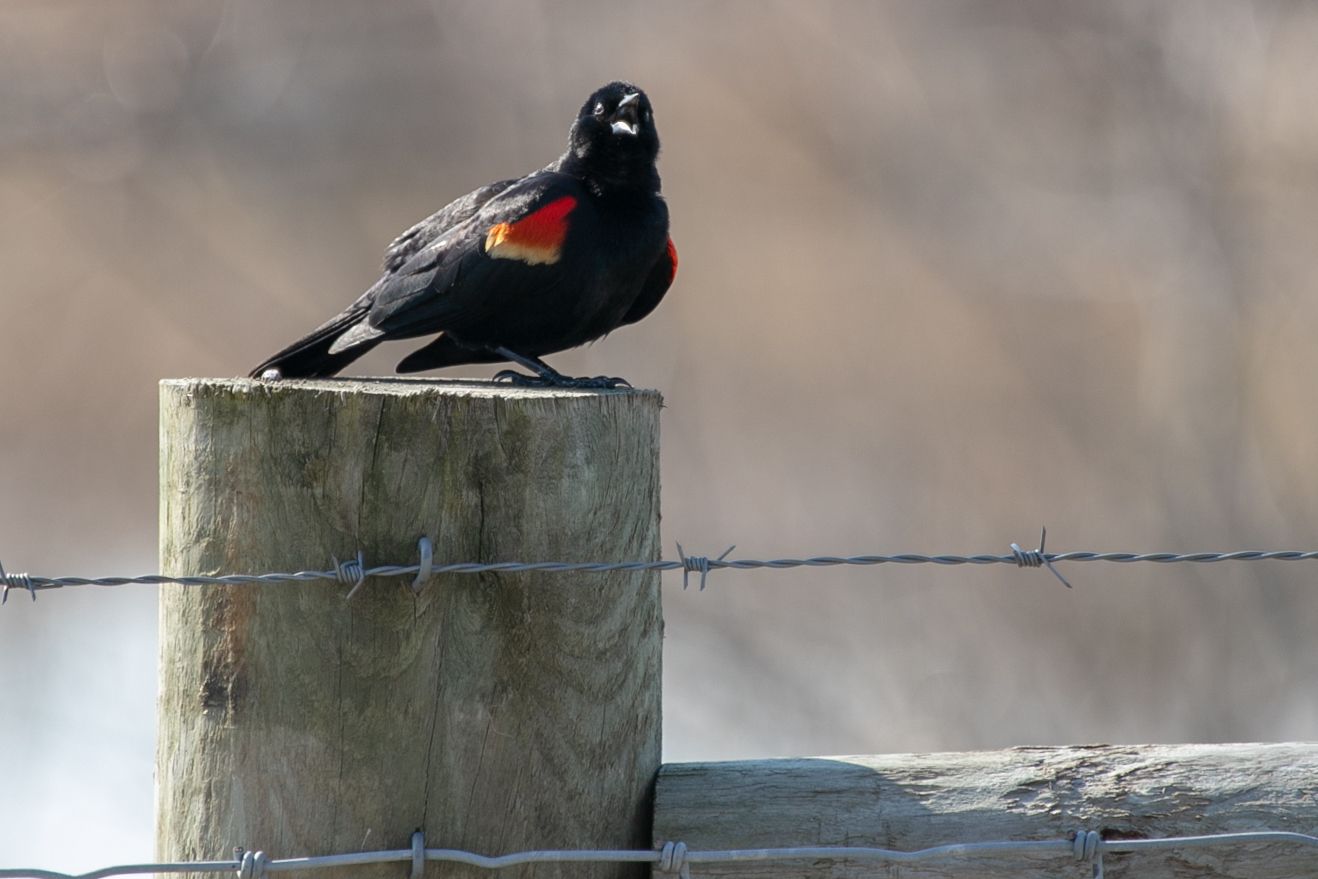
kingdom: Animalia
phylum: Chordata
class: Aves
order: Passeriformes
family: Icteridae
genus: Agelaius
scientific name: Agelaius phoeniceus
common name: Red-winged blackbird
